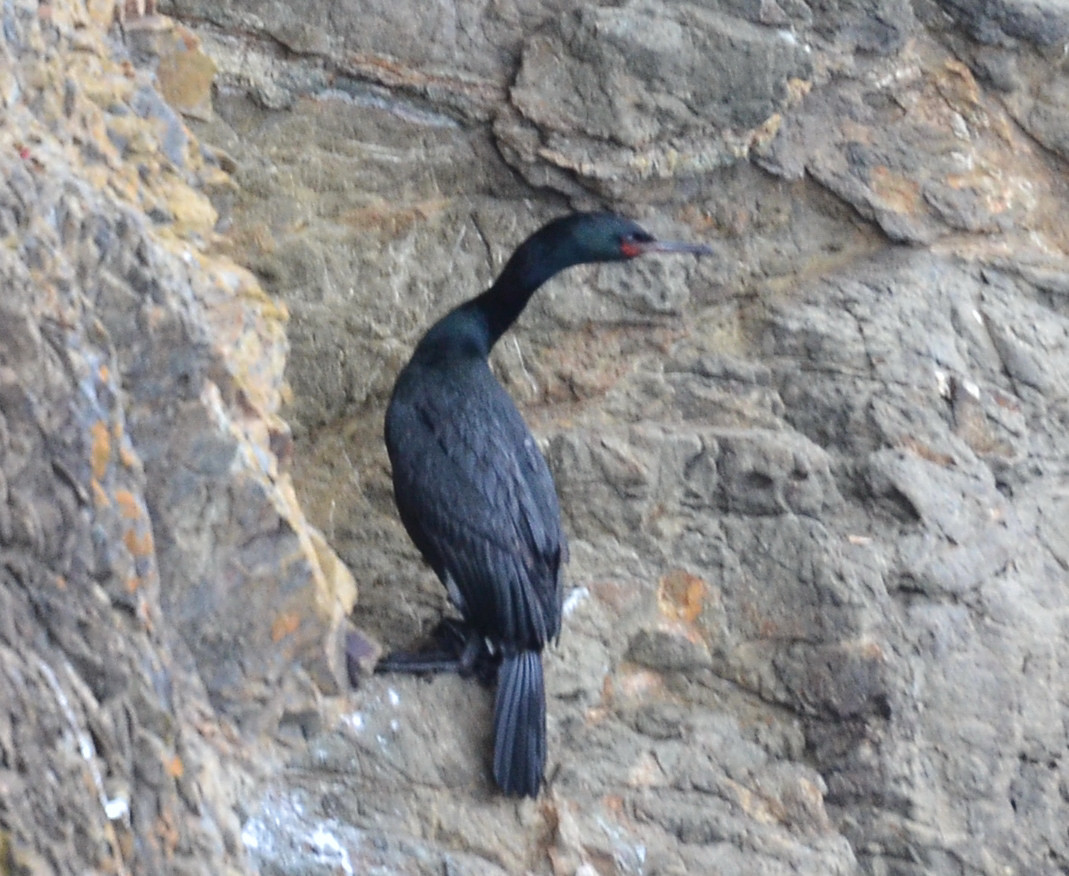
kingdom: Animalia
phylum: Chordata
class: Aves
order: Suliformes
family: Phalacrocoracidae
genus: Phalacrocorax
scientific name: Phalacrocorax pelagicus
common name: Pelagic cormorant
